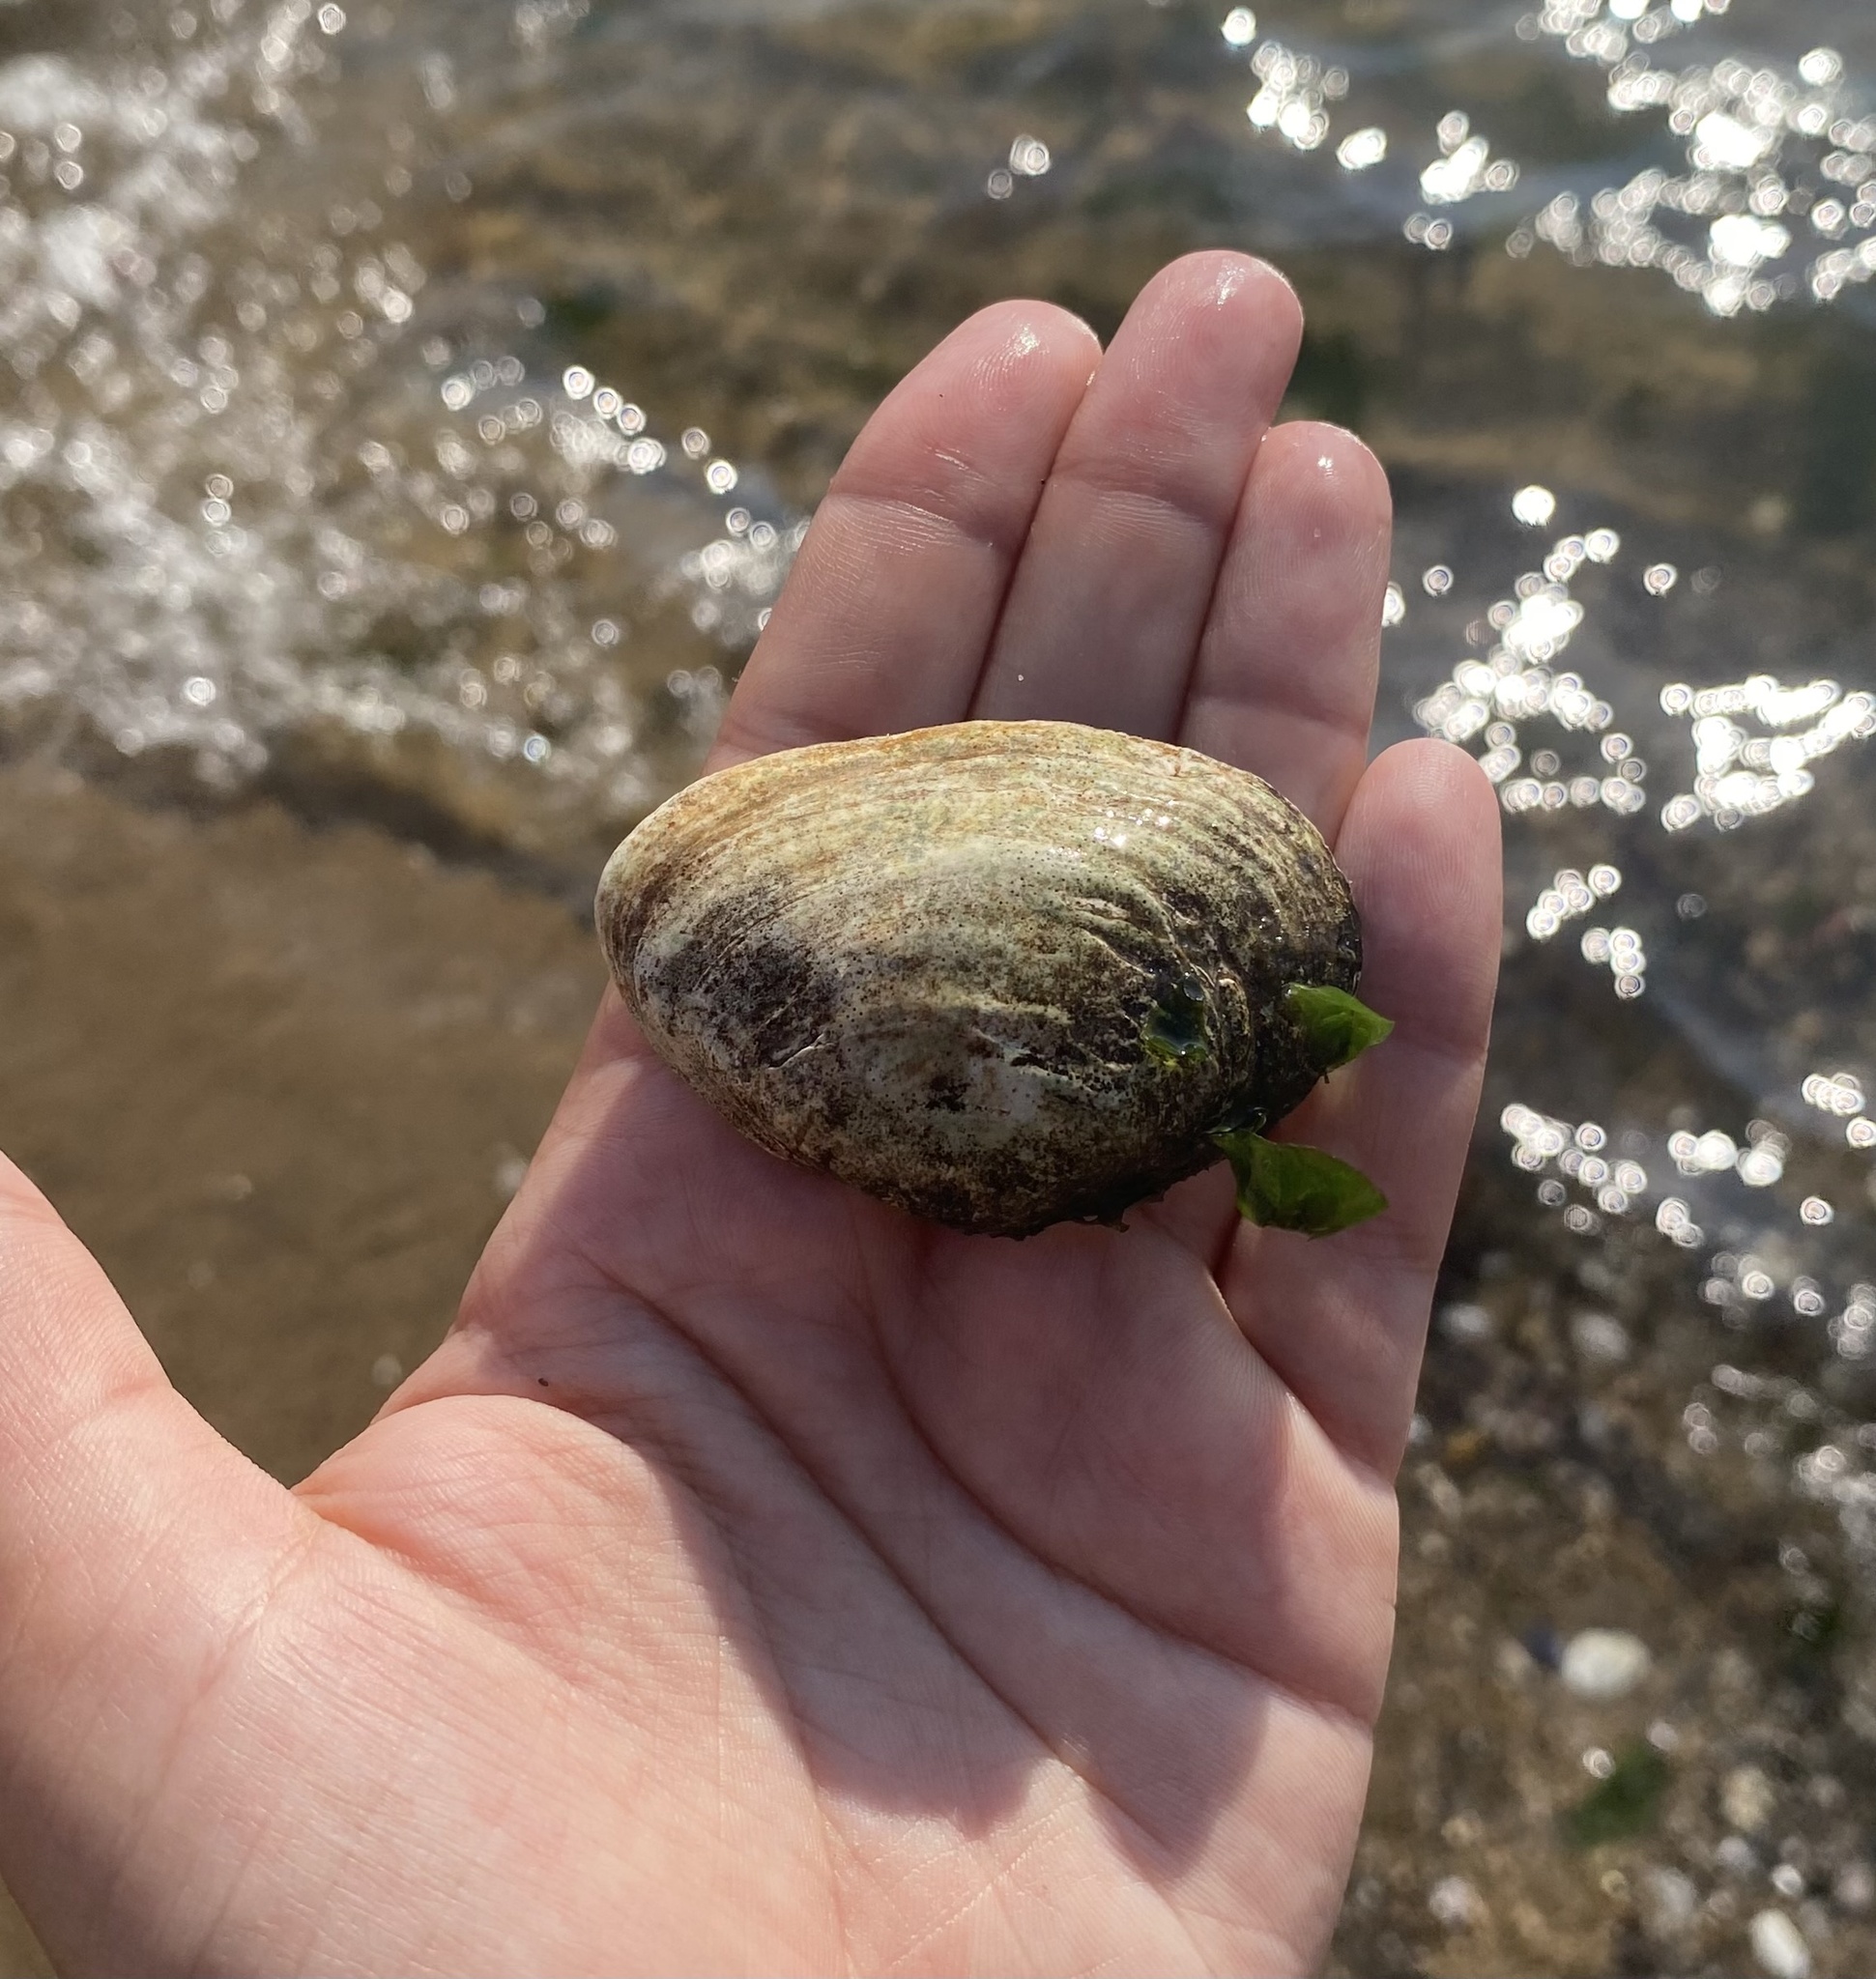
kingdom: Animalia
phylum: Mollusca
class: Bivalvia
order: Myida
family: Myidae
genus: Mya
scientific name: Mya arenaria
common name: Soft-shelled clam
